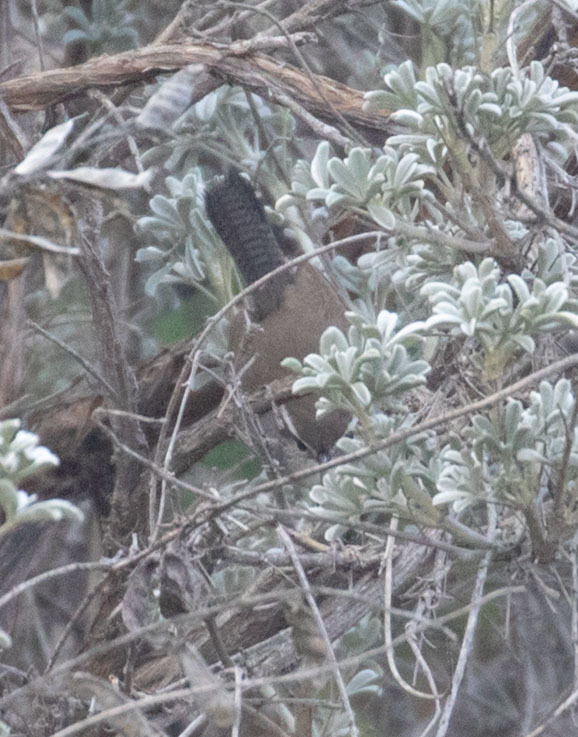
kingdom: Animalia
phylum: Chordata
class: Aves
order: Passeriformes
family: Troglodytidae
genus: Thryomanes
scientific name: Thryomanes bewickii
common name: Bewick's wren
